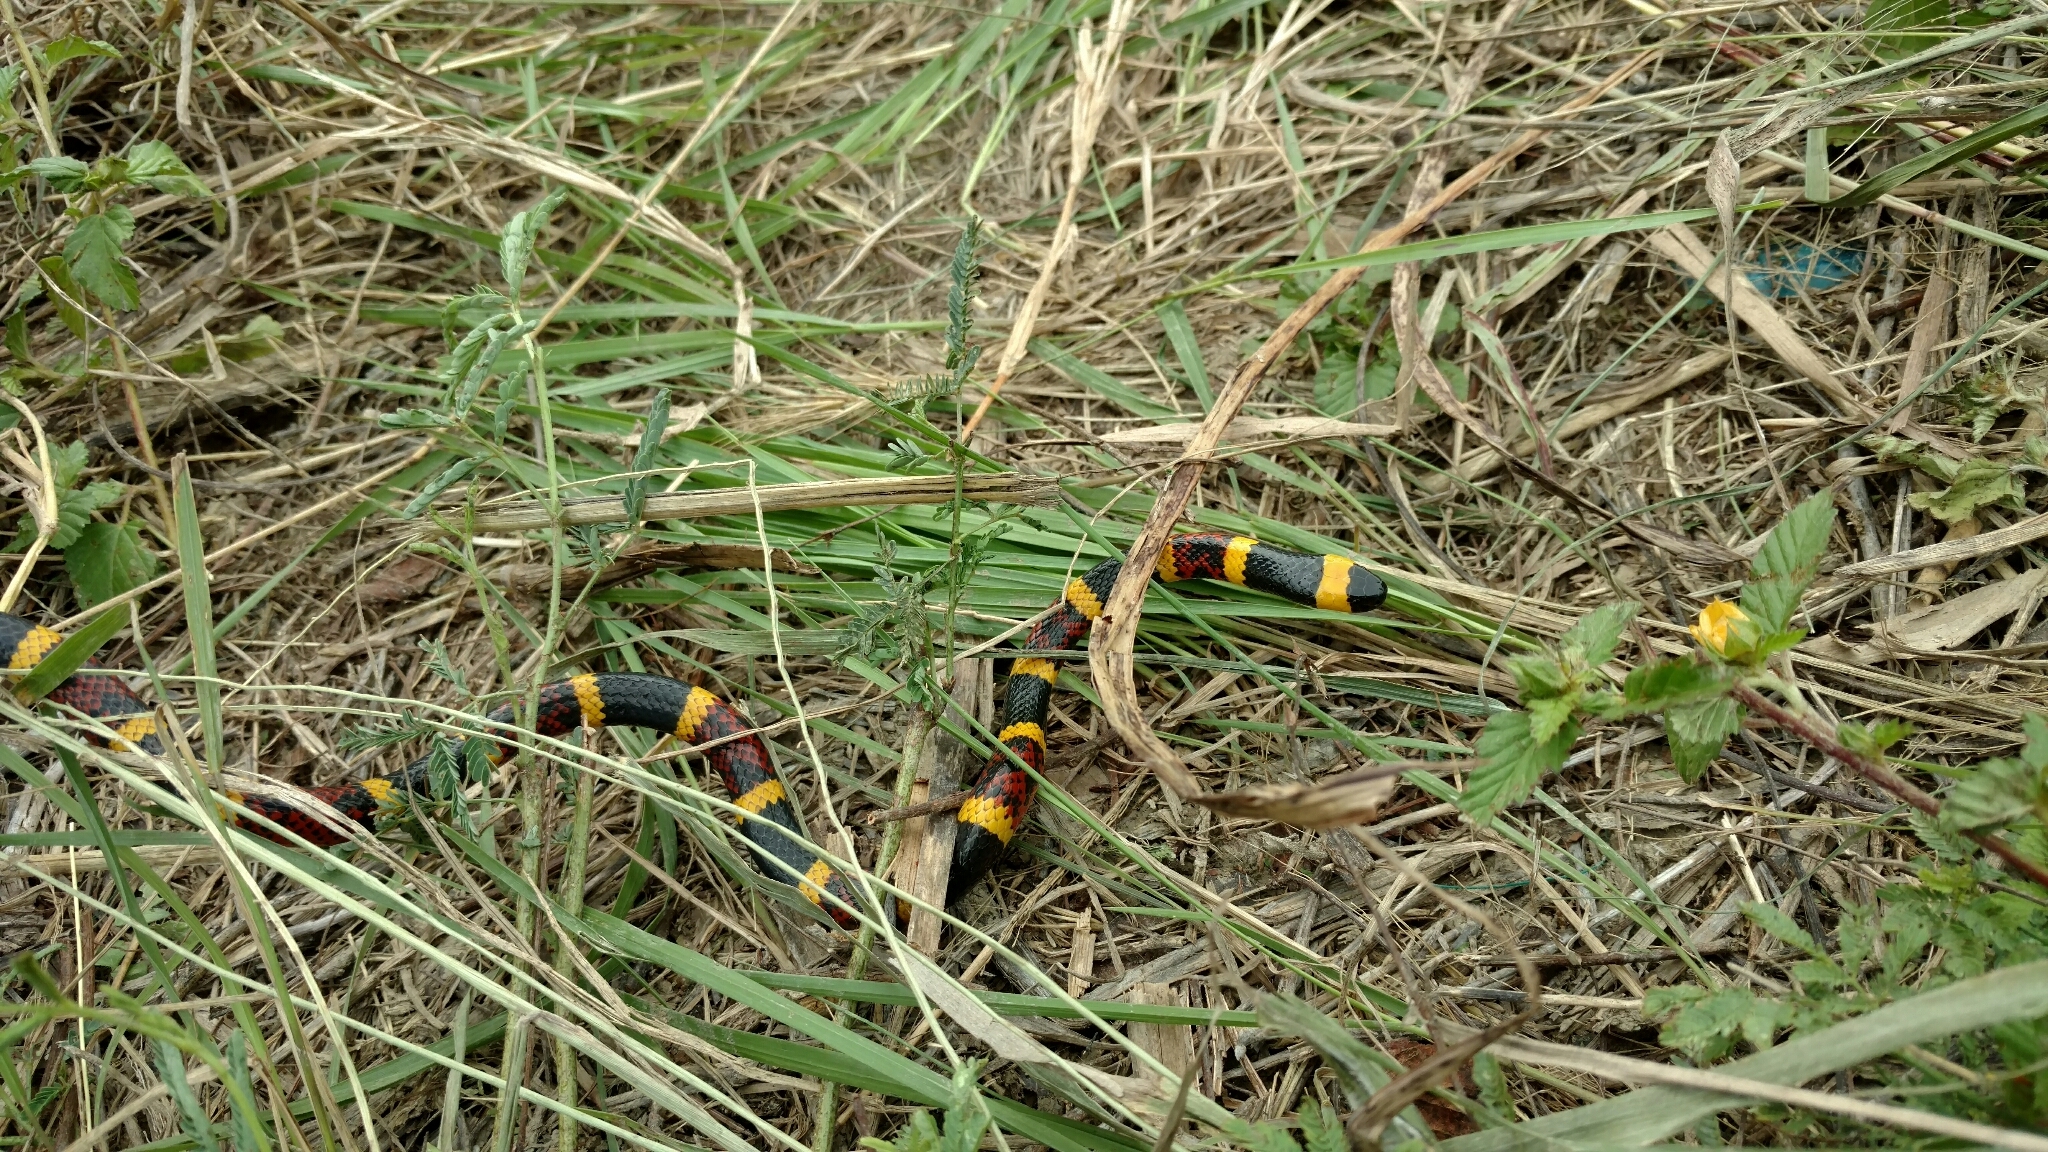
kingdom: Animalia
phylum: Chordata
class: Squamata
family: Elapidae
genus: Micrurus
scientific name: Micrurus tener
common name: Texas coral snake
